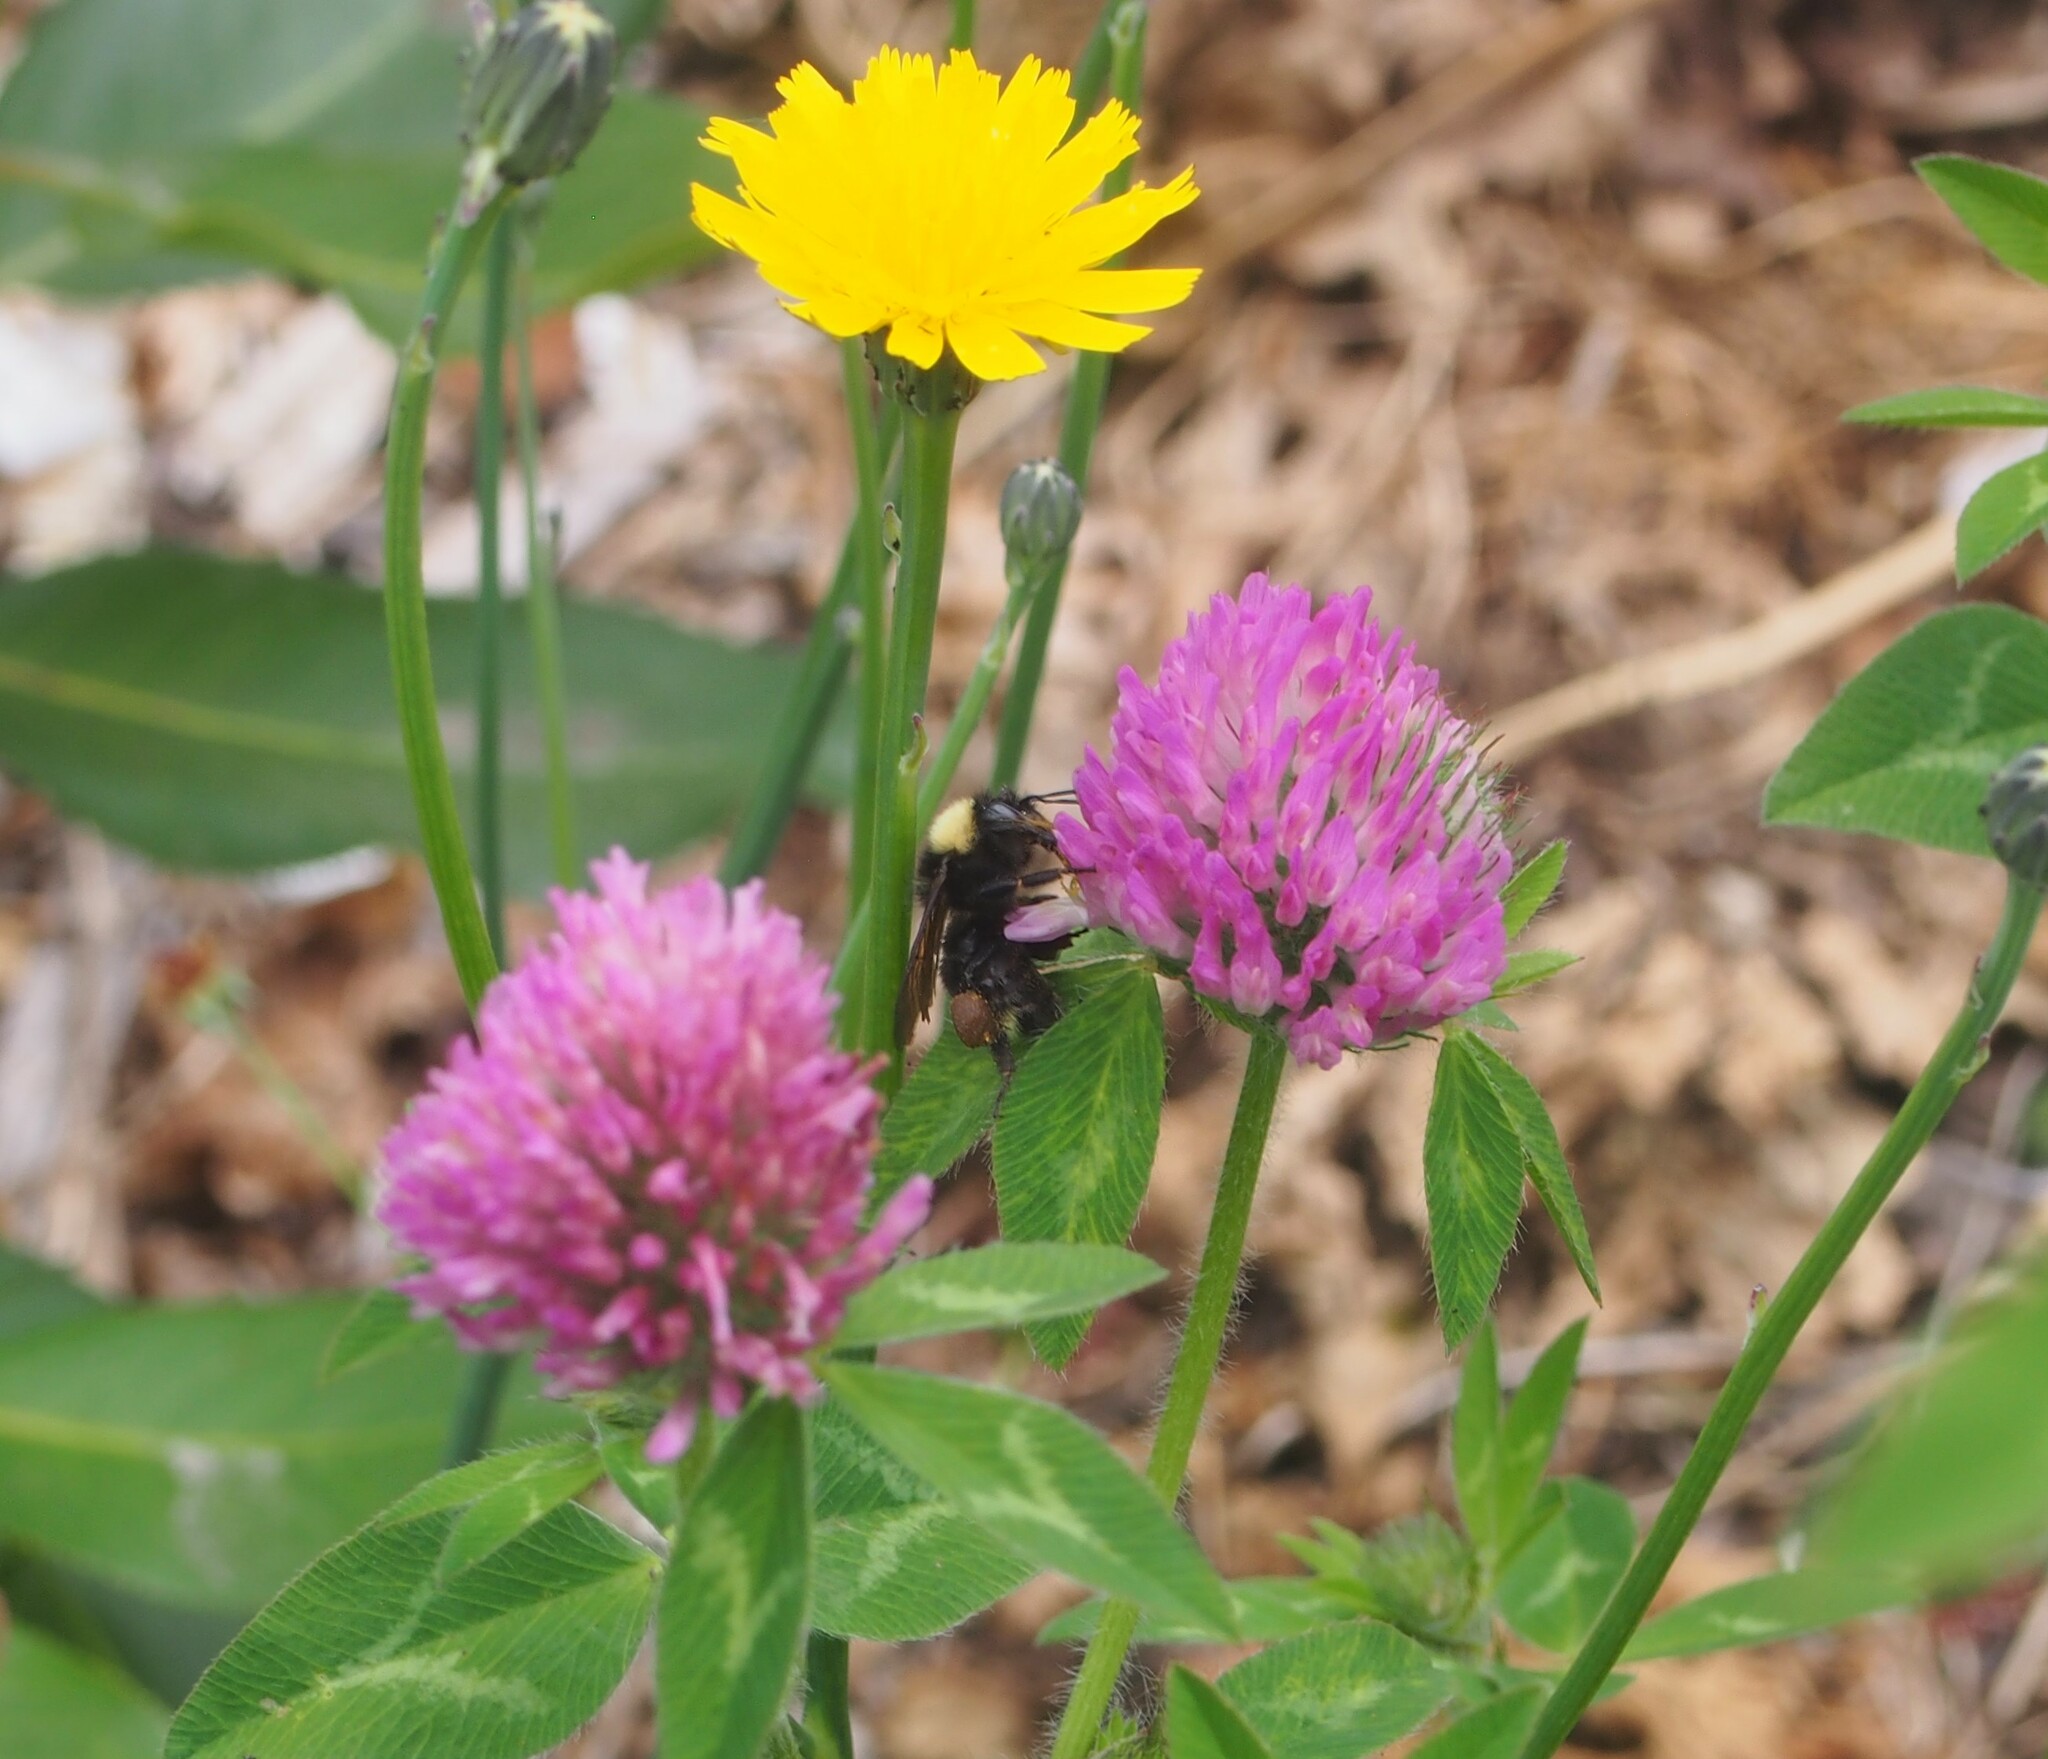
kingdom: Animalia
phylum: Arthropoda
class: Insecta
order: Hymenoptera
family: Apidae
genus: Bombus
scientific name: Bombus californicus
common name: California bumble bee
